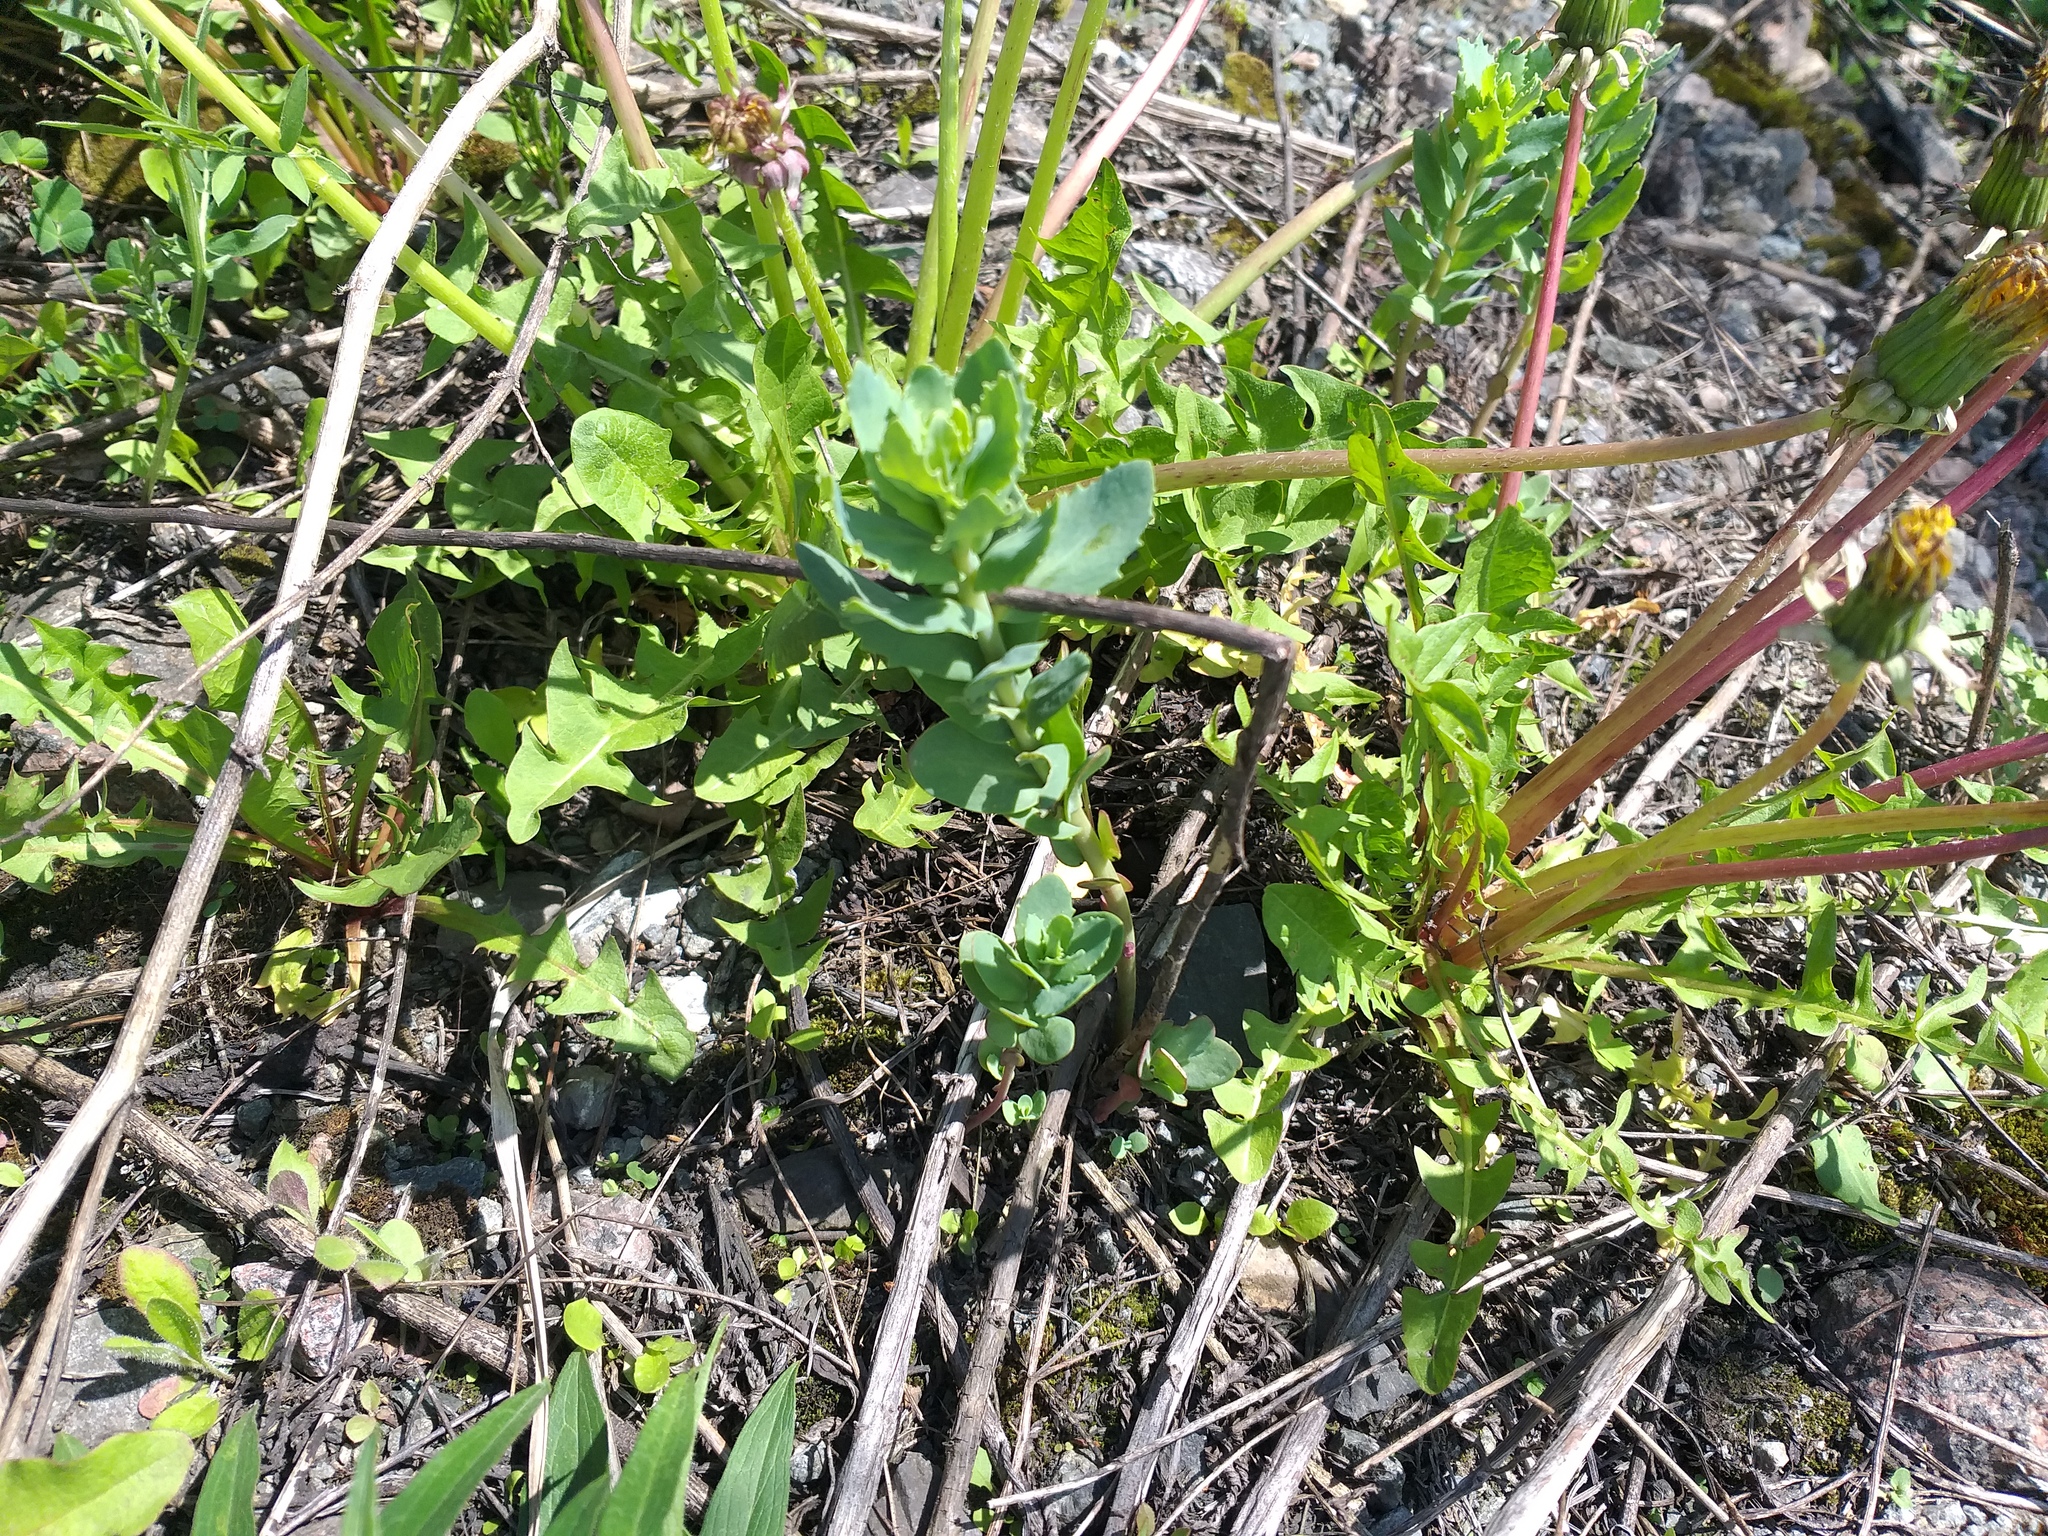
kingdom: Plantae
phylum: Tracheophyta
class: Magnoliopsida
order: Saxifragales
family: Crassulaceae
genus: Hylotelephium
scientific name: Hylotelephium telephium
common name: Live-forever
